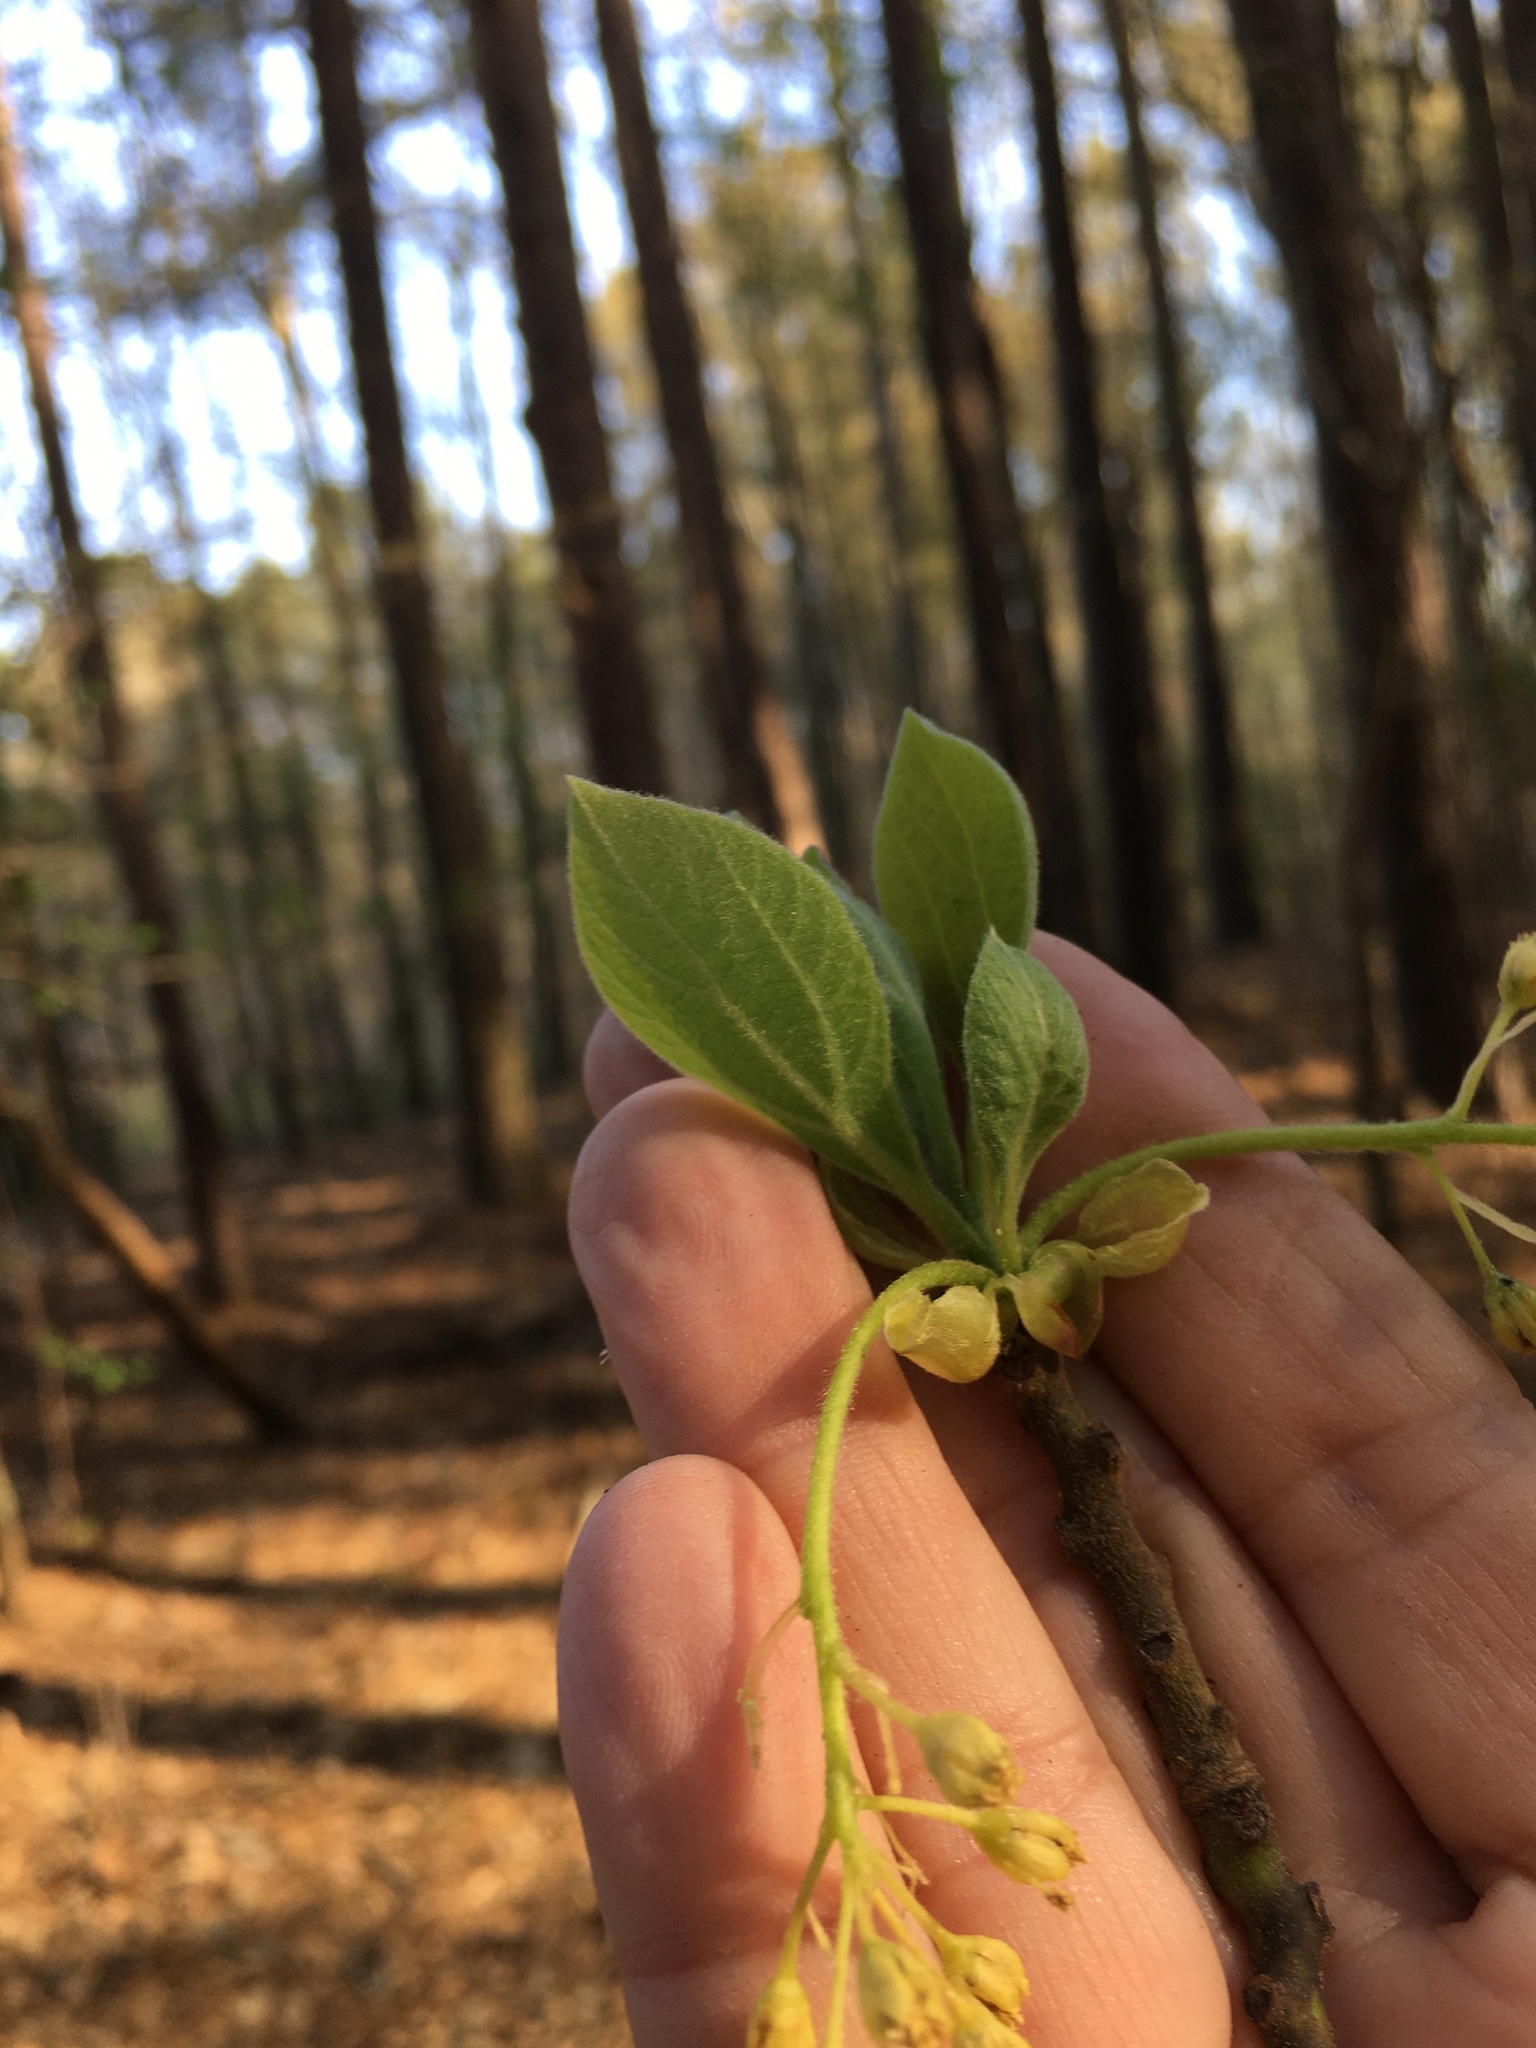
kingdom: Plantae
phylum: Tracheophyta
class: Magnoliopsida
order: Laurales
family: Lauraceae
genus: Sassafras
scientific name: Sassafras albidum
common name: Sassafras
